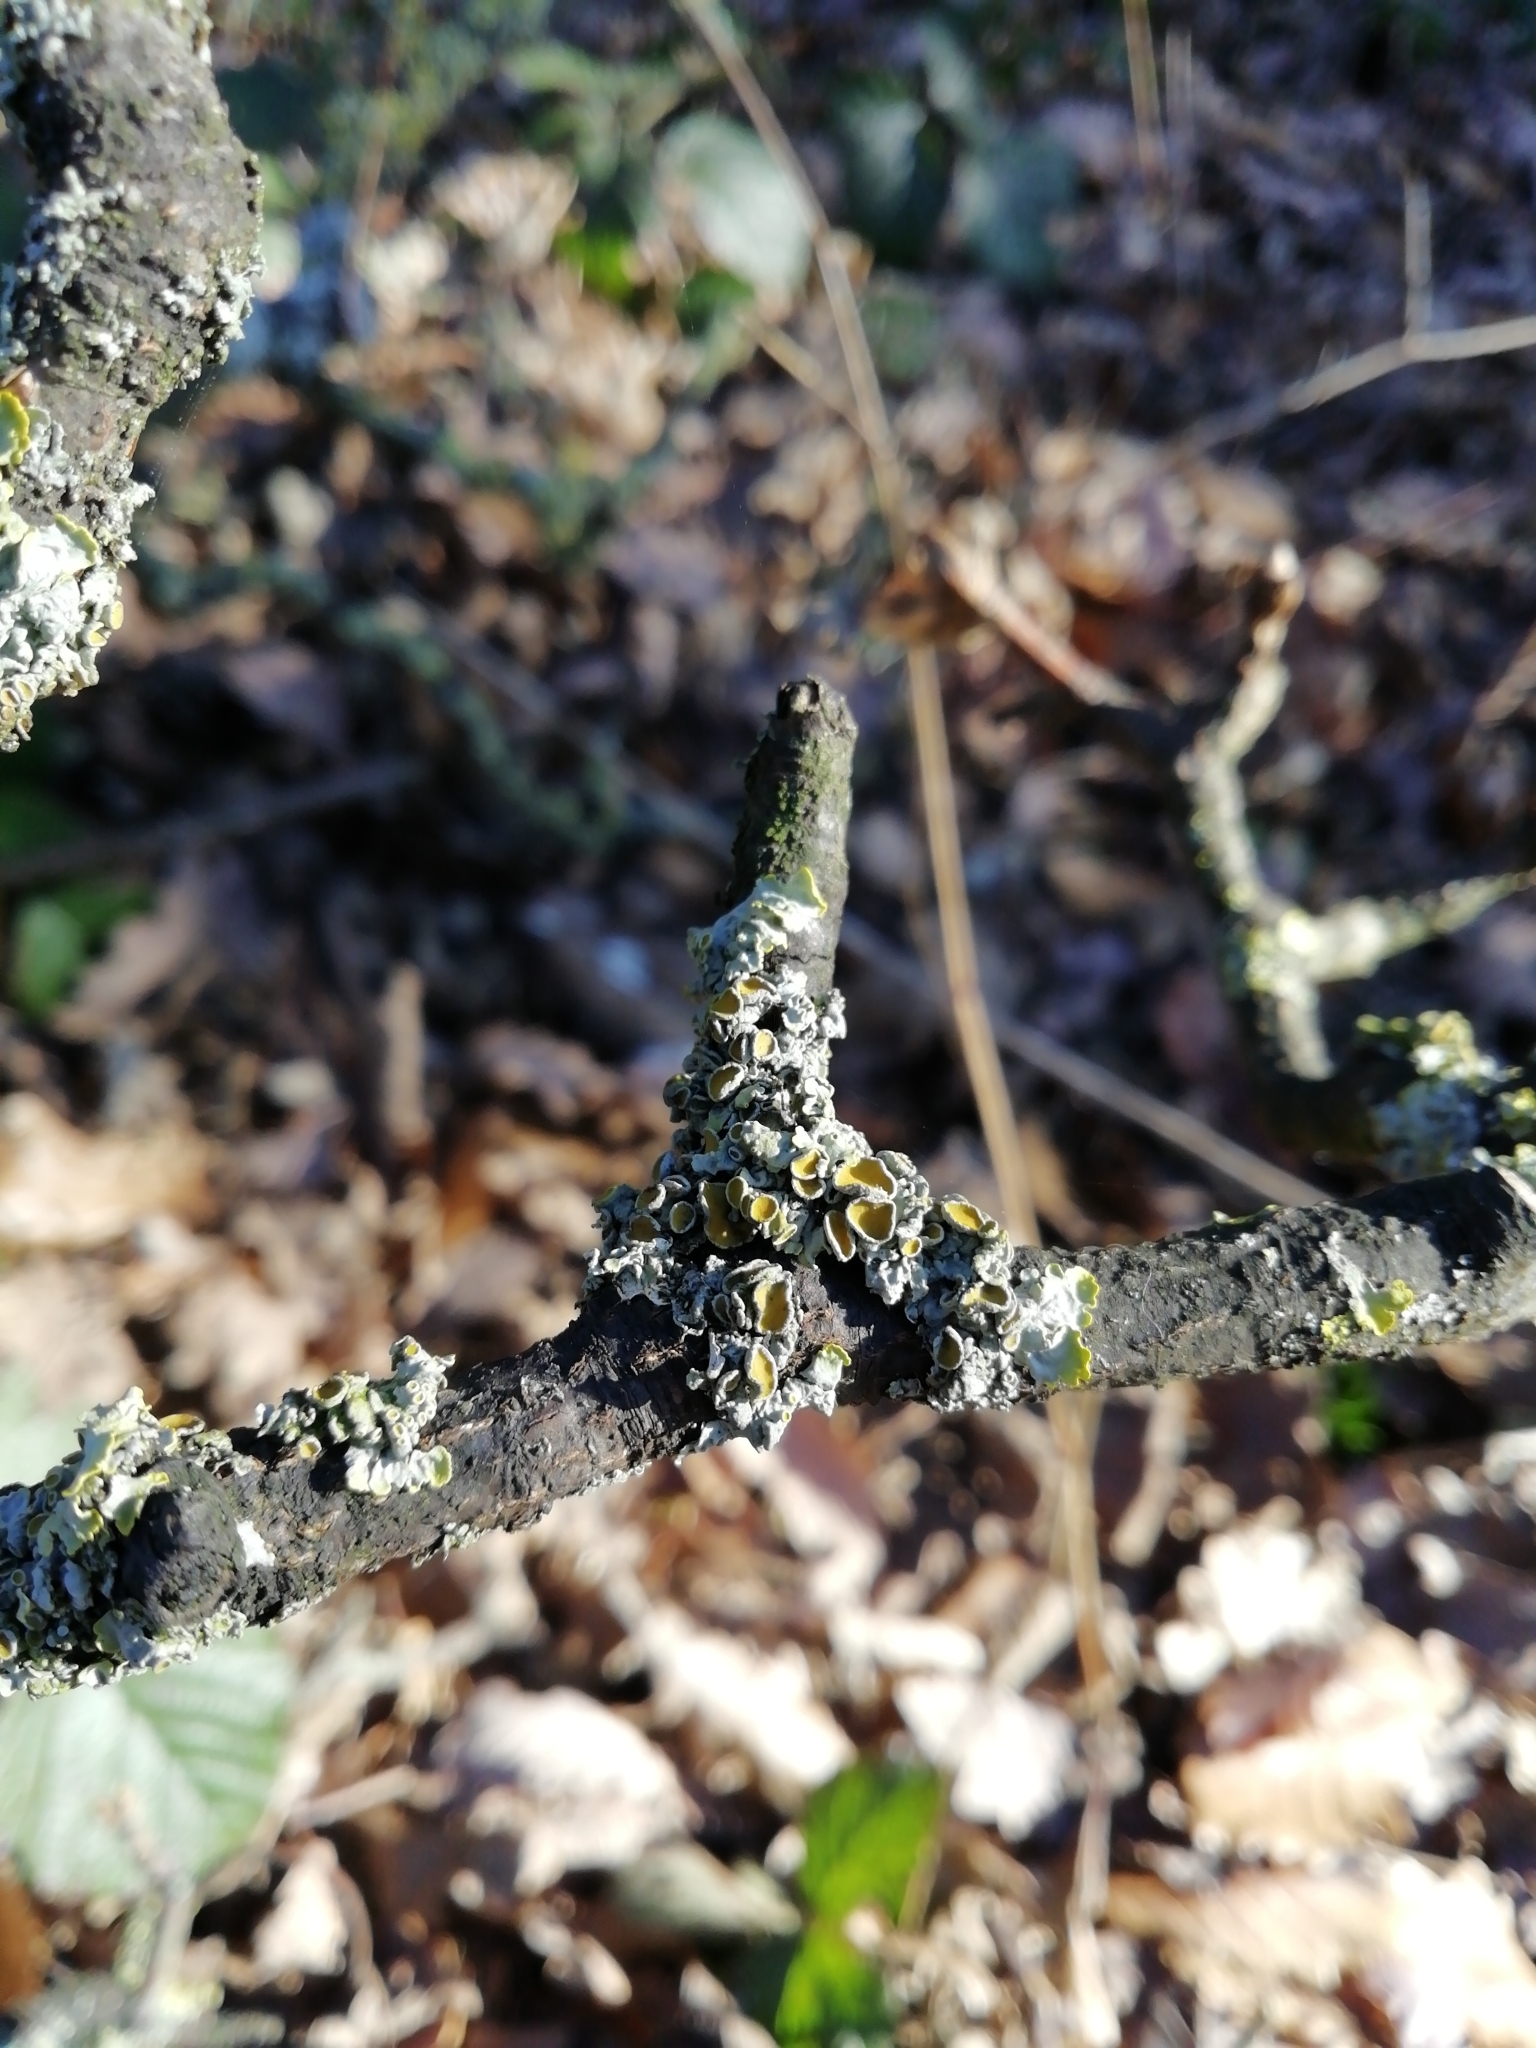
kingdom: Fungi
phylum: Ascomycota
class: Lecanoromycetes
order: Teloschistales
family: Teloschistaceae
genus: Xanthoria
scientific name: Xanthoria parietina
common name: Common orange lichen
